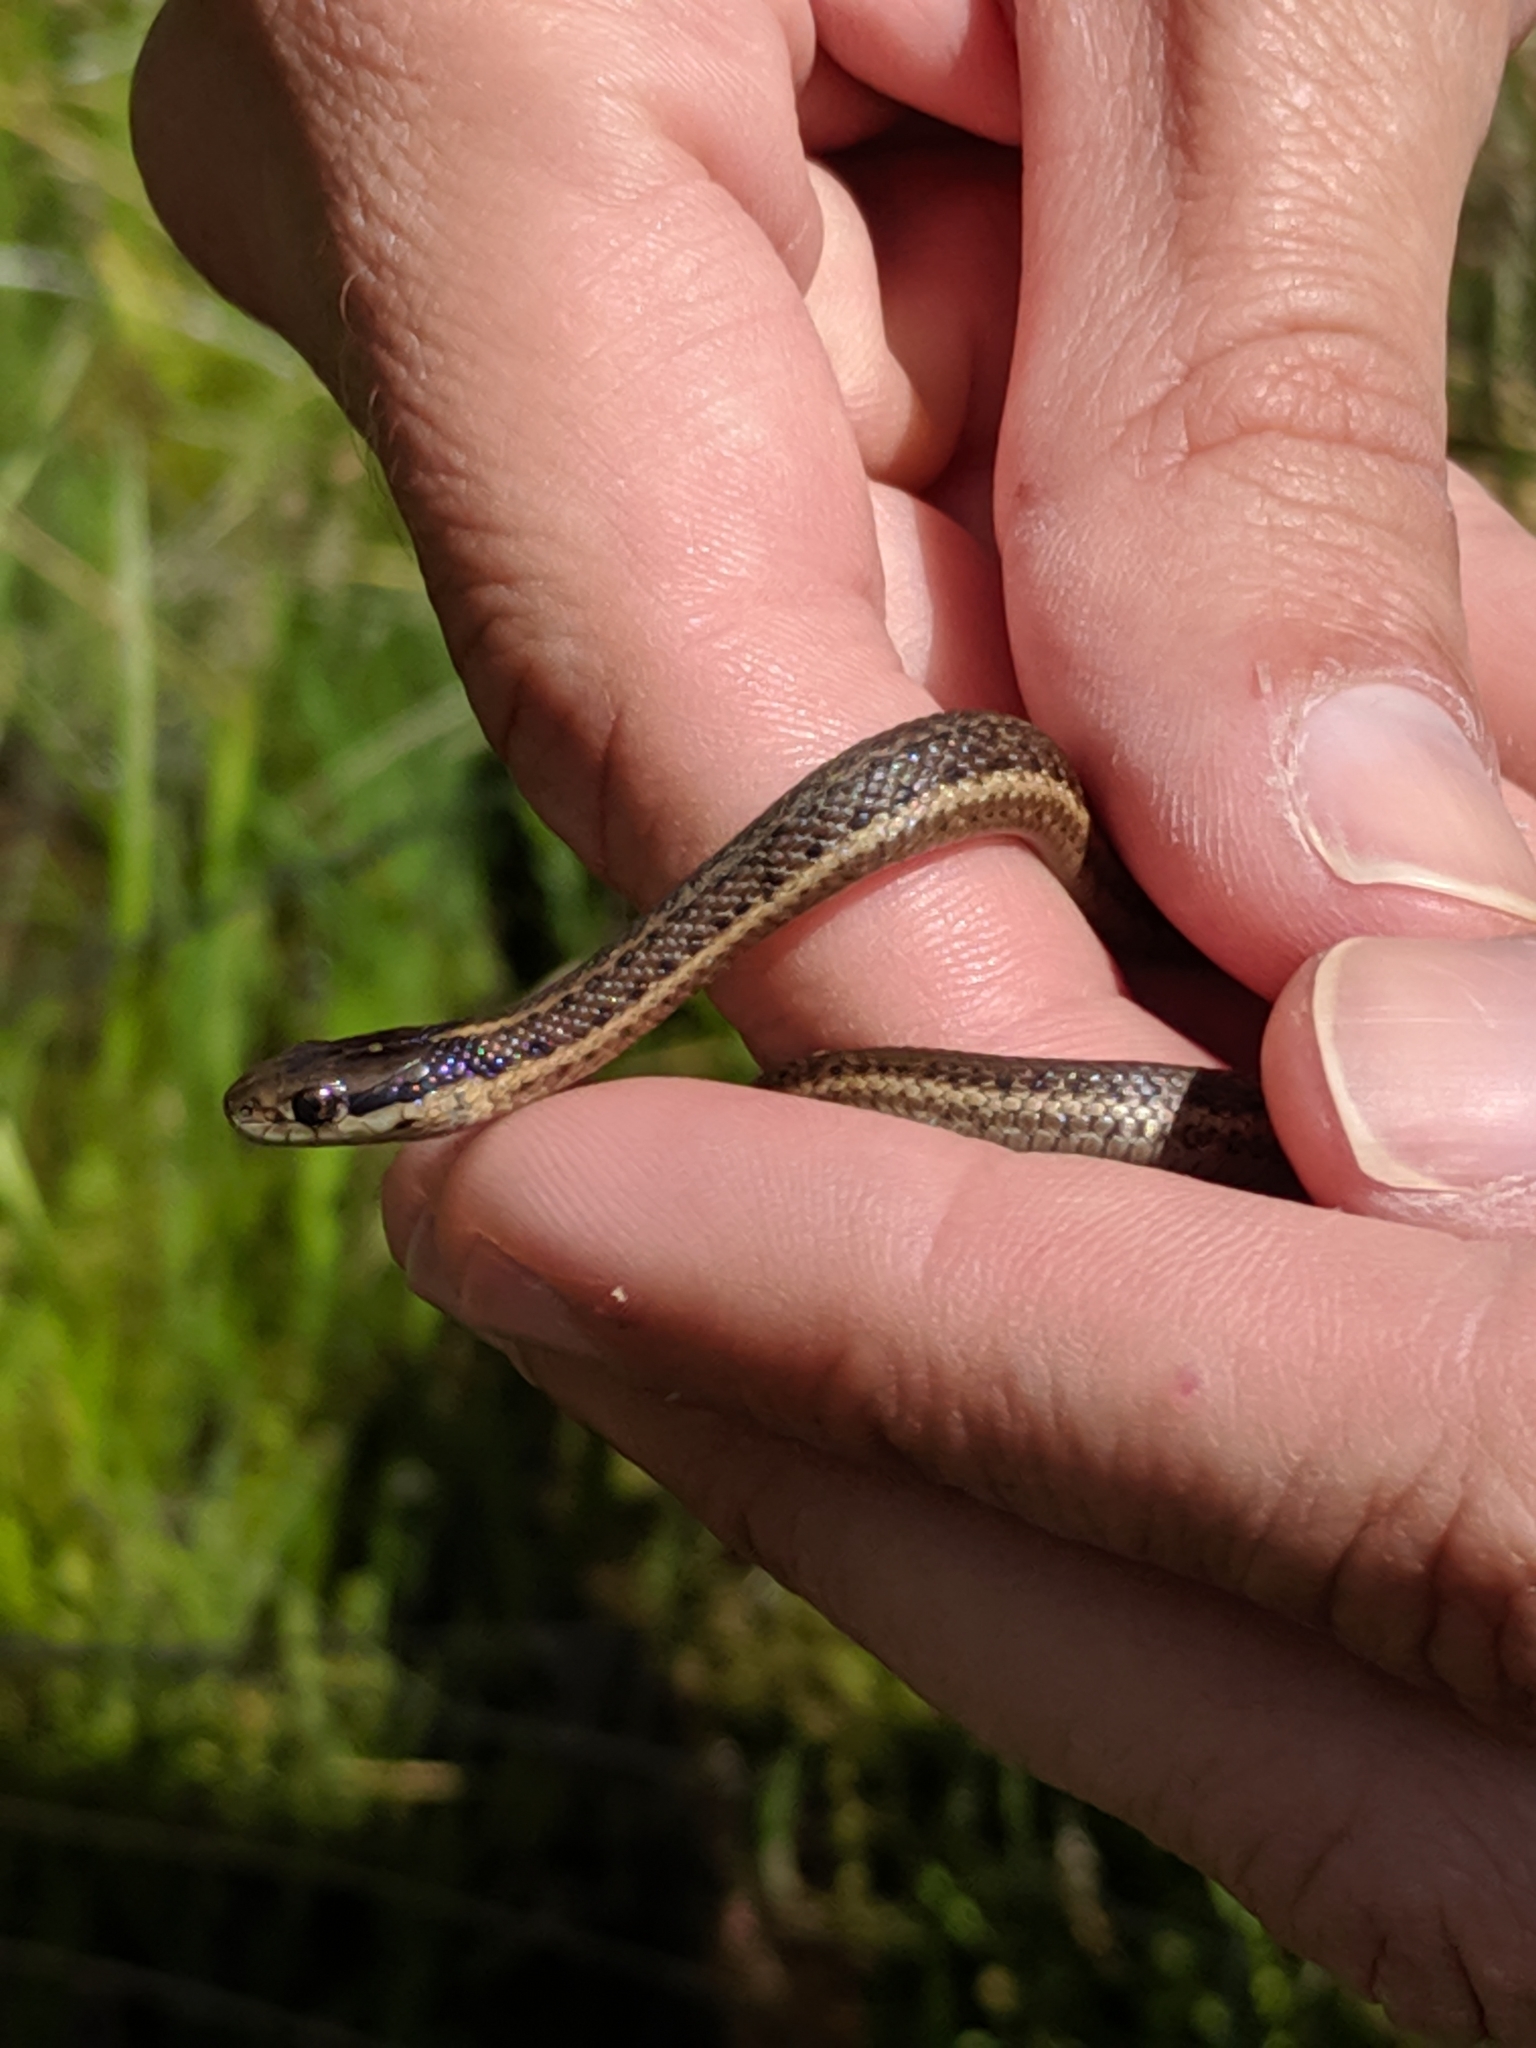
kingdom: Animalia
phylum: Chordata
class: Squamata
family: Colubridae
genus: Thamnophis
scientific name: Thamnophis ordinoides
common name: Northwestern garter snake
